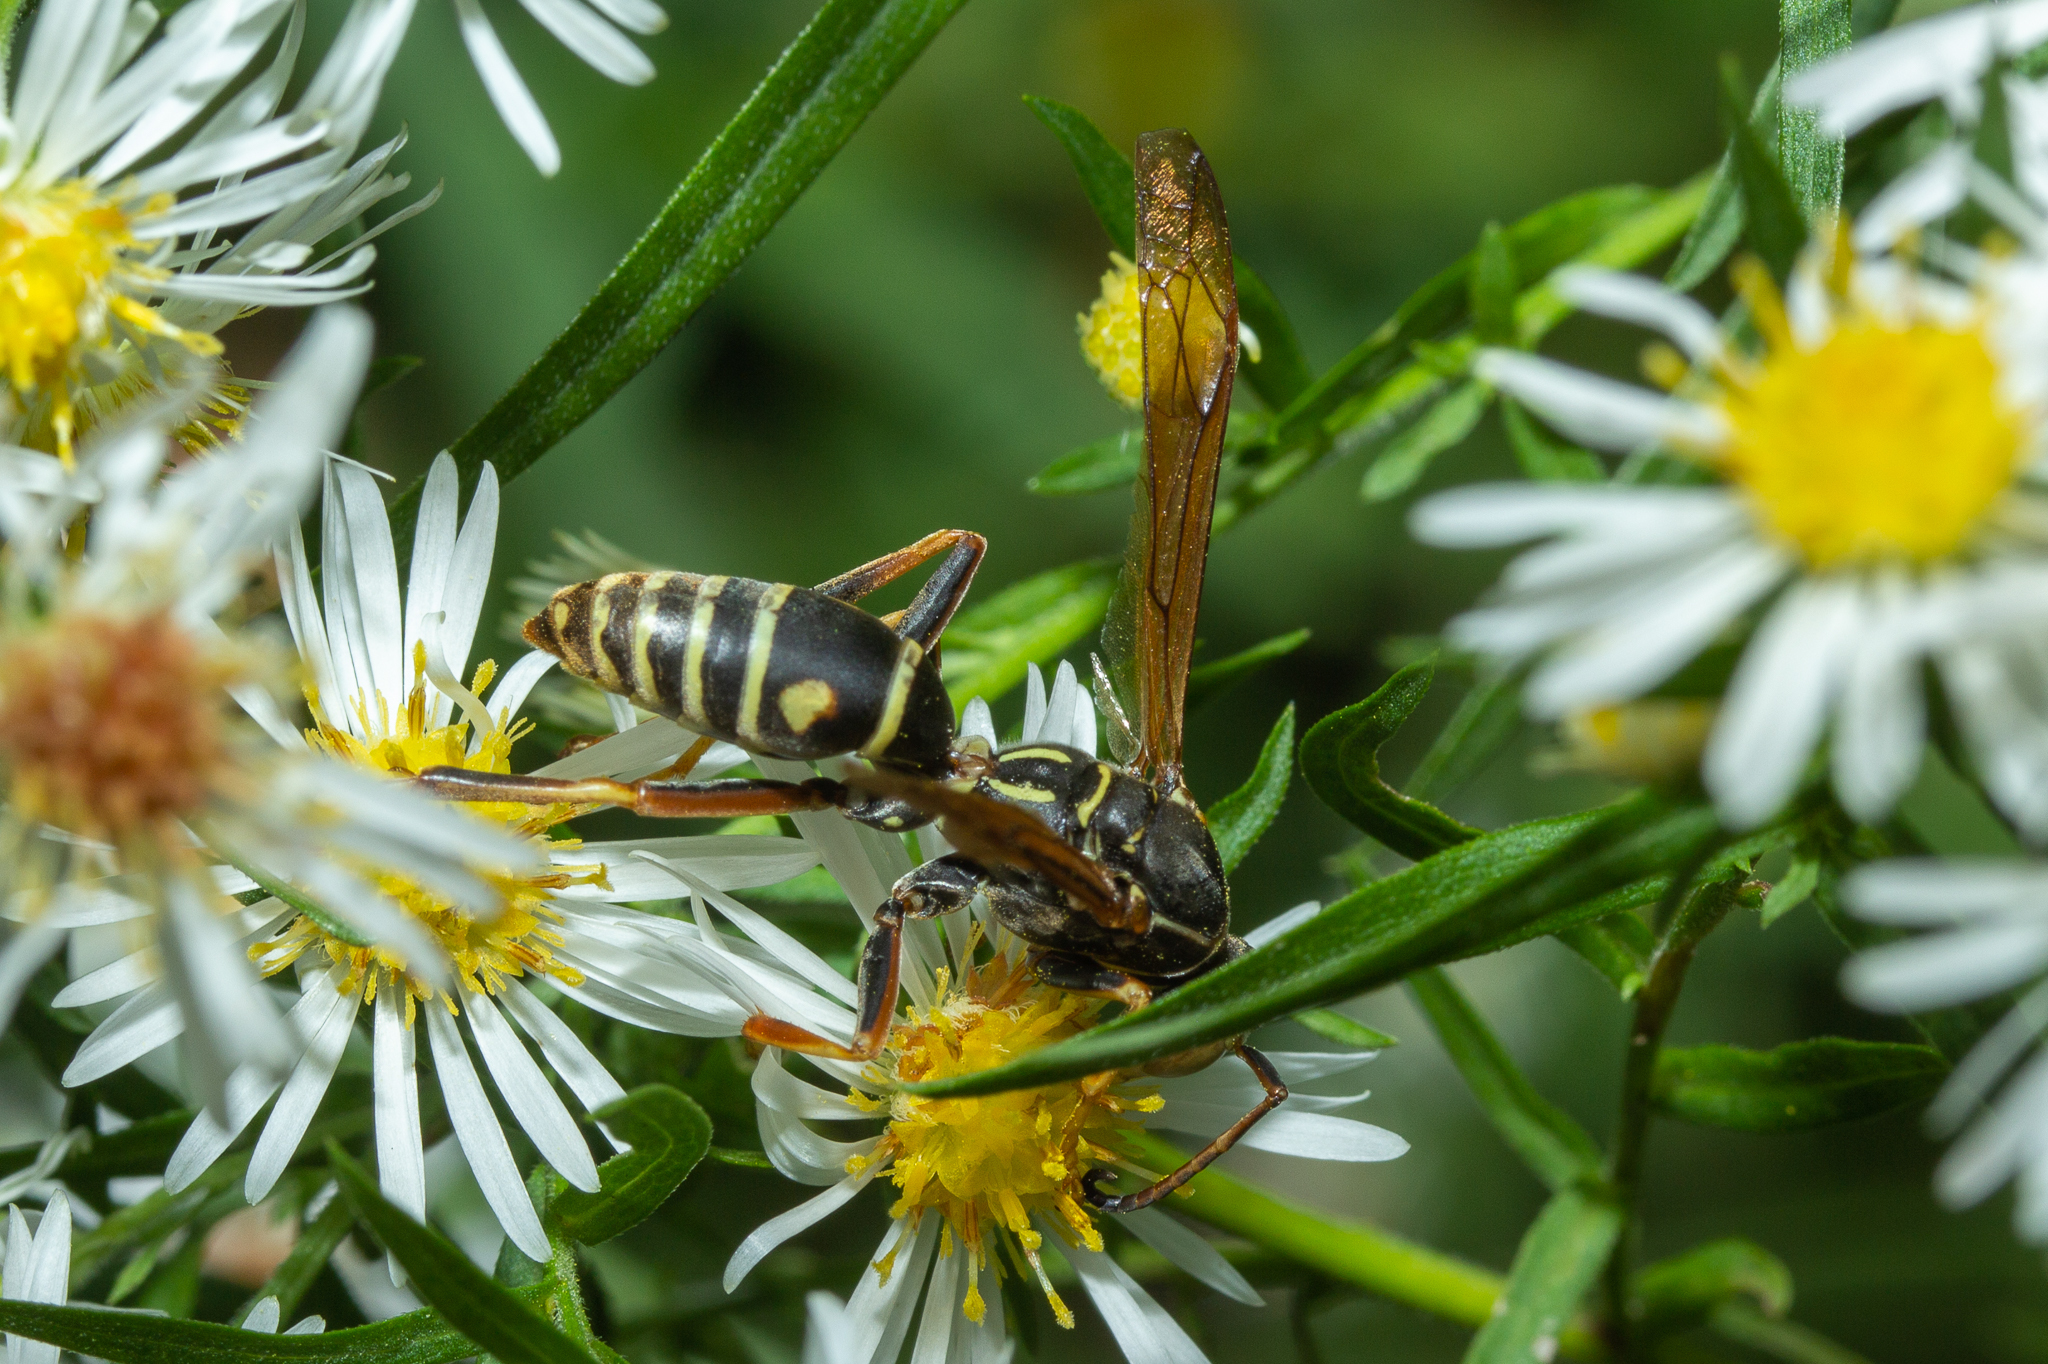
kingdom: Animalia
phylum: Arthropoda
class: Insecta
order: Hymenoptera
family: Eumenidae
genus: Polistes
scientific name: Polistes fuscatus
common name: Dark paper wasp
